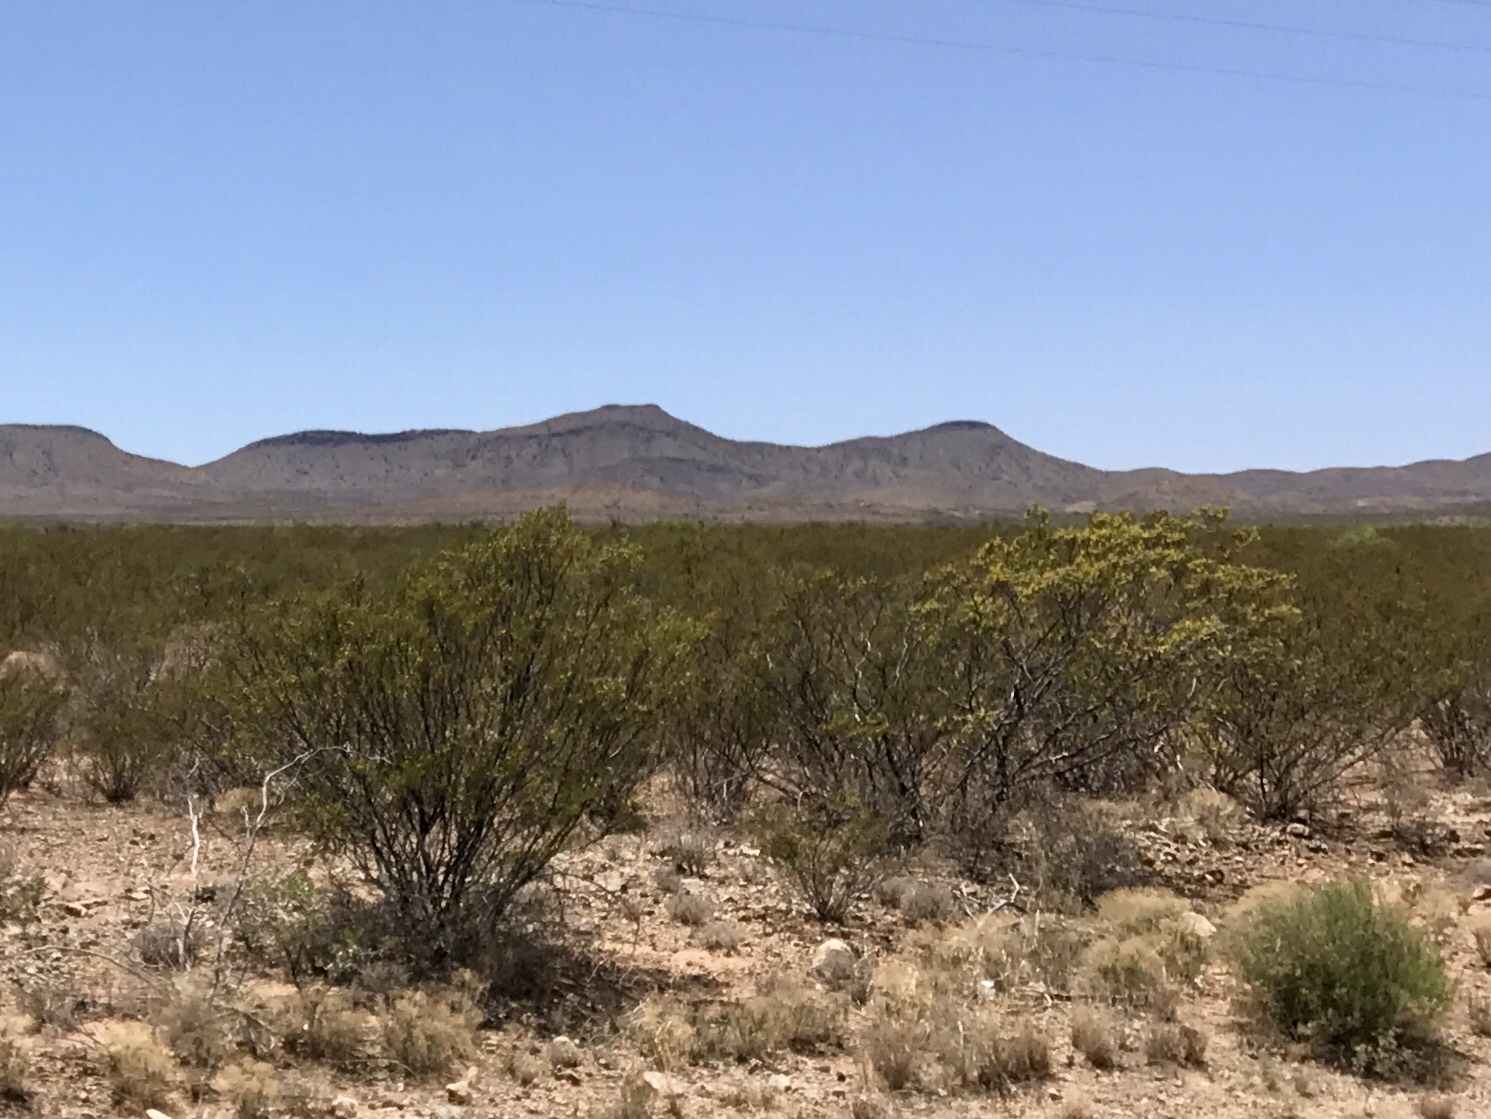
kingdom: Plantae
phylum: Tracheophyta
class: Magnoliopsida
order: Zygophyllales
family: Zygophyllaceae
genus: Larrea
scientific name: Larrea tridentata
